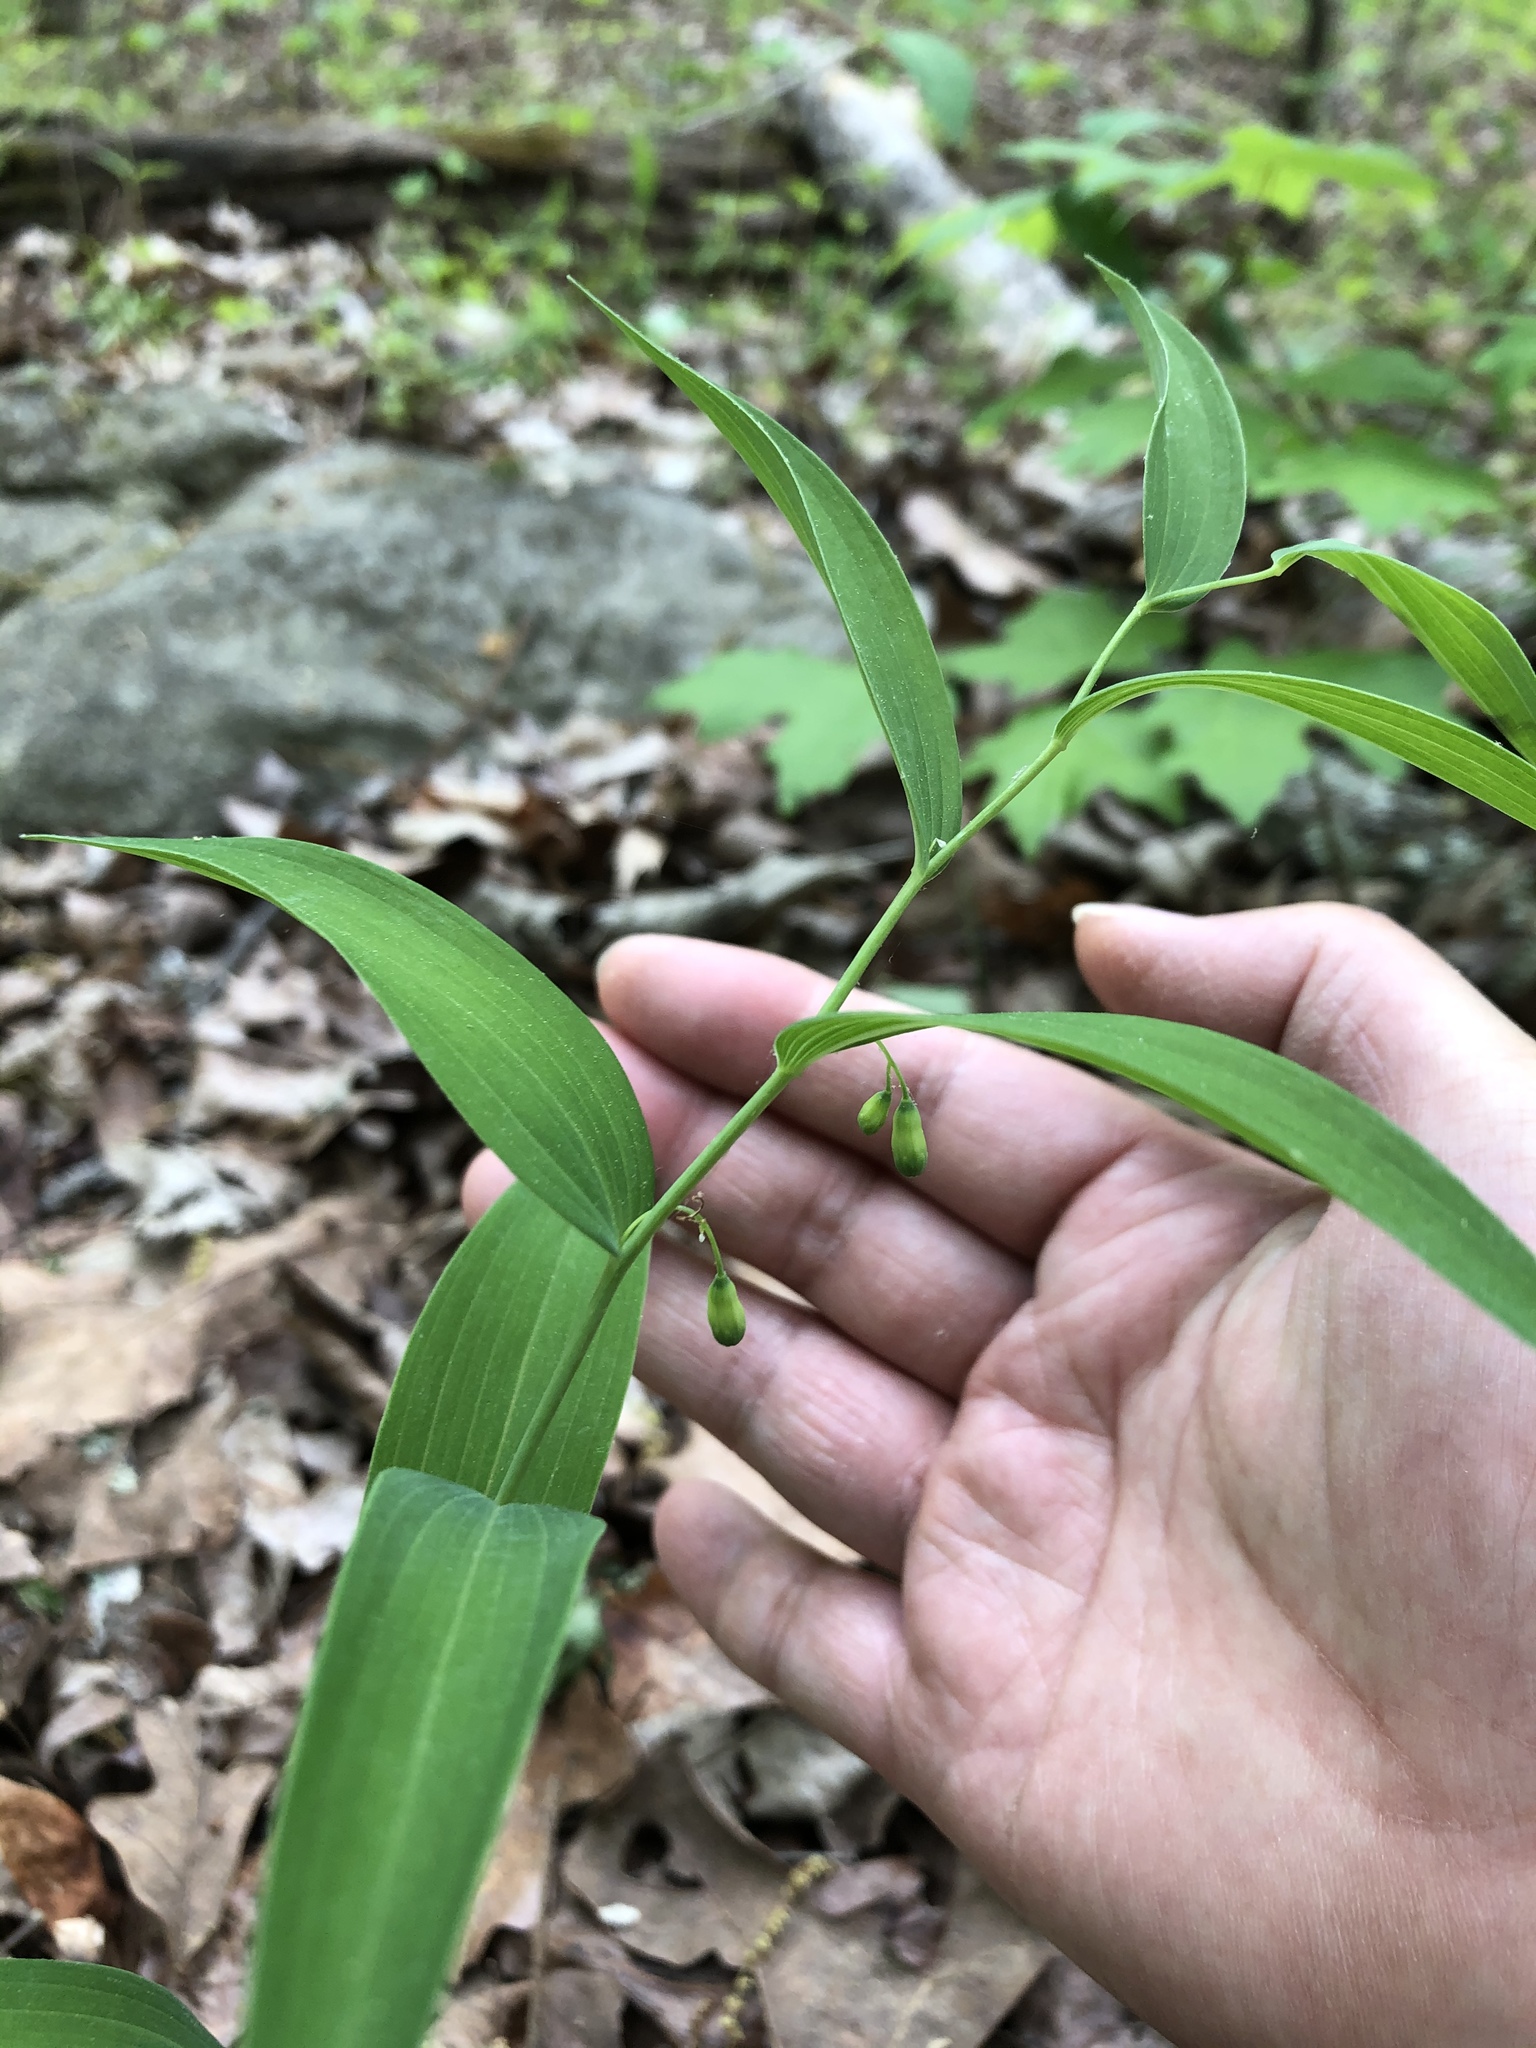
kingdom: Plantae
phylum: Tracheophyta
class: Liliopsida
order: Asparagales
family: Asparagaceae
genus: Polygonatum
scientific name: Polygonatum biflorum
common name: American solomon's-seal
